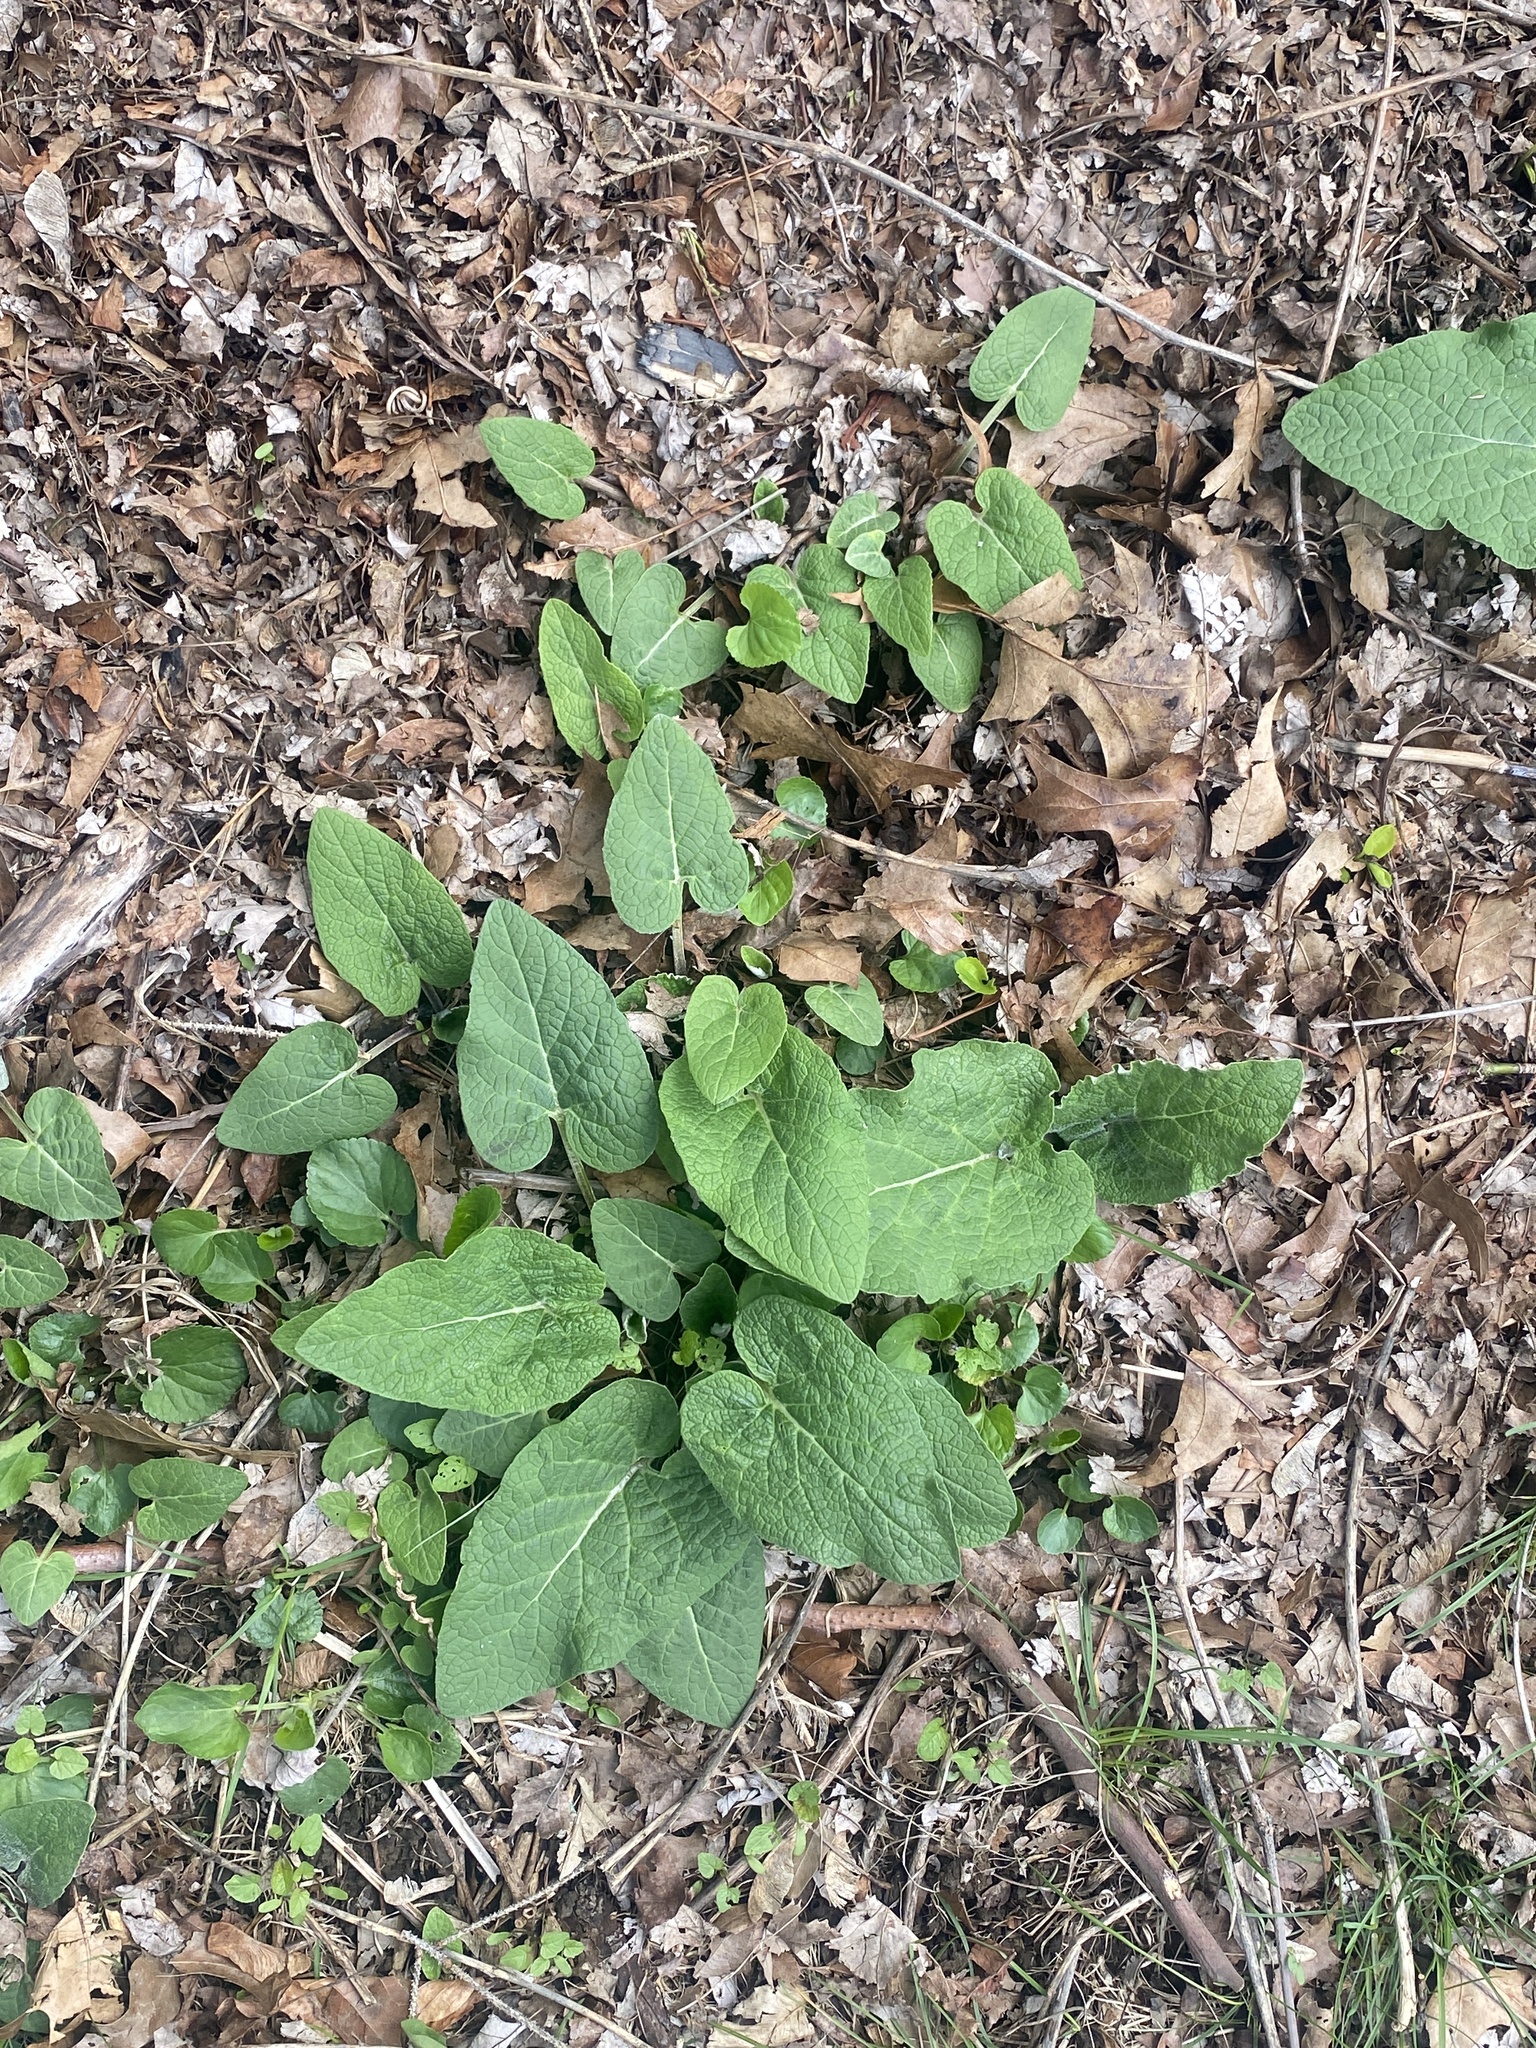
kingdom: Plantae
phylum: Tracheophyta
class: Magnoliopsida
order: Asterales
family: Asteraceae
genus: Arctium
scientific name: Arctium minus
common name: Lesser burdock
